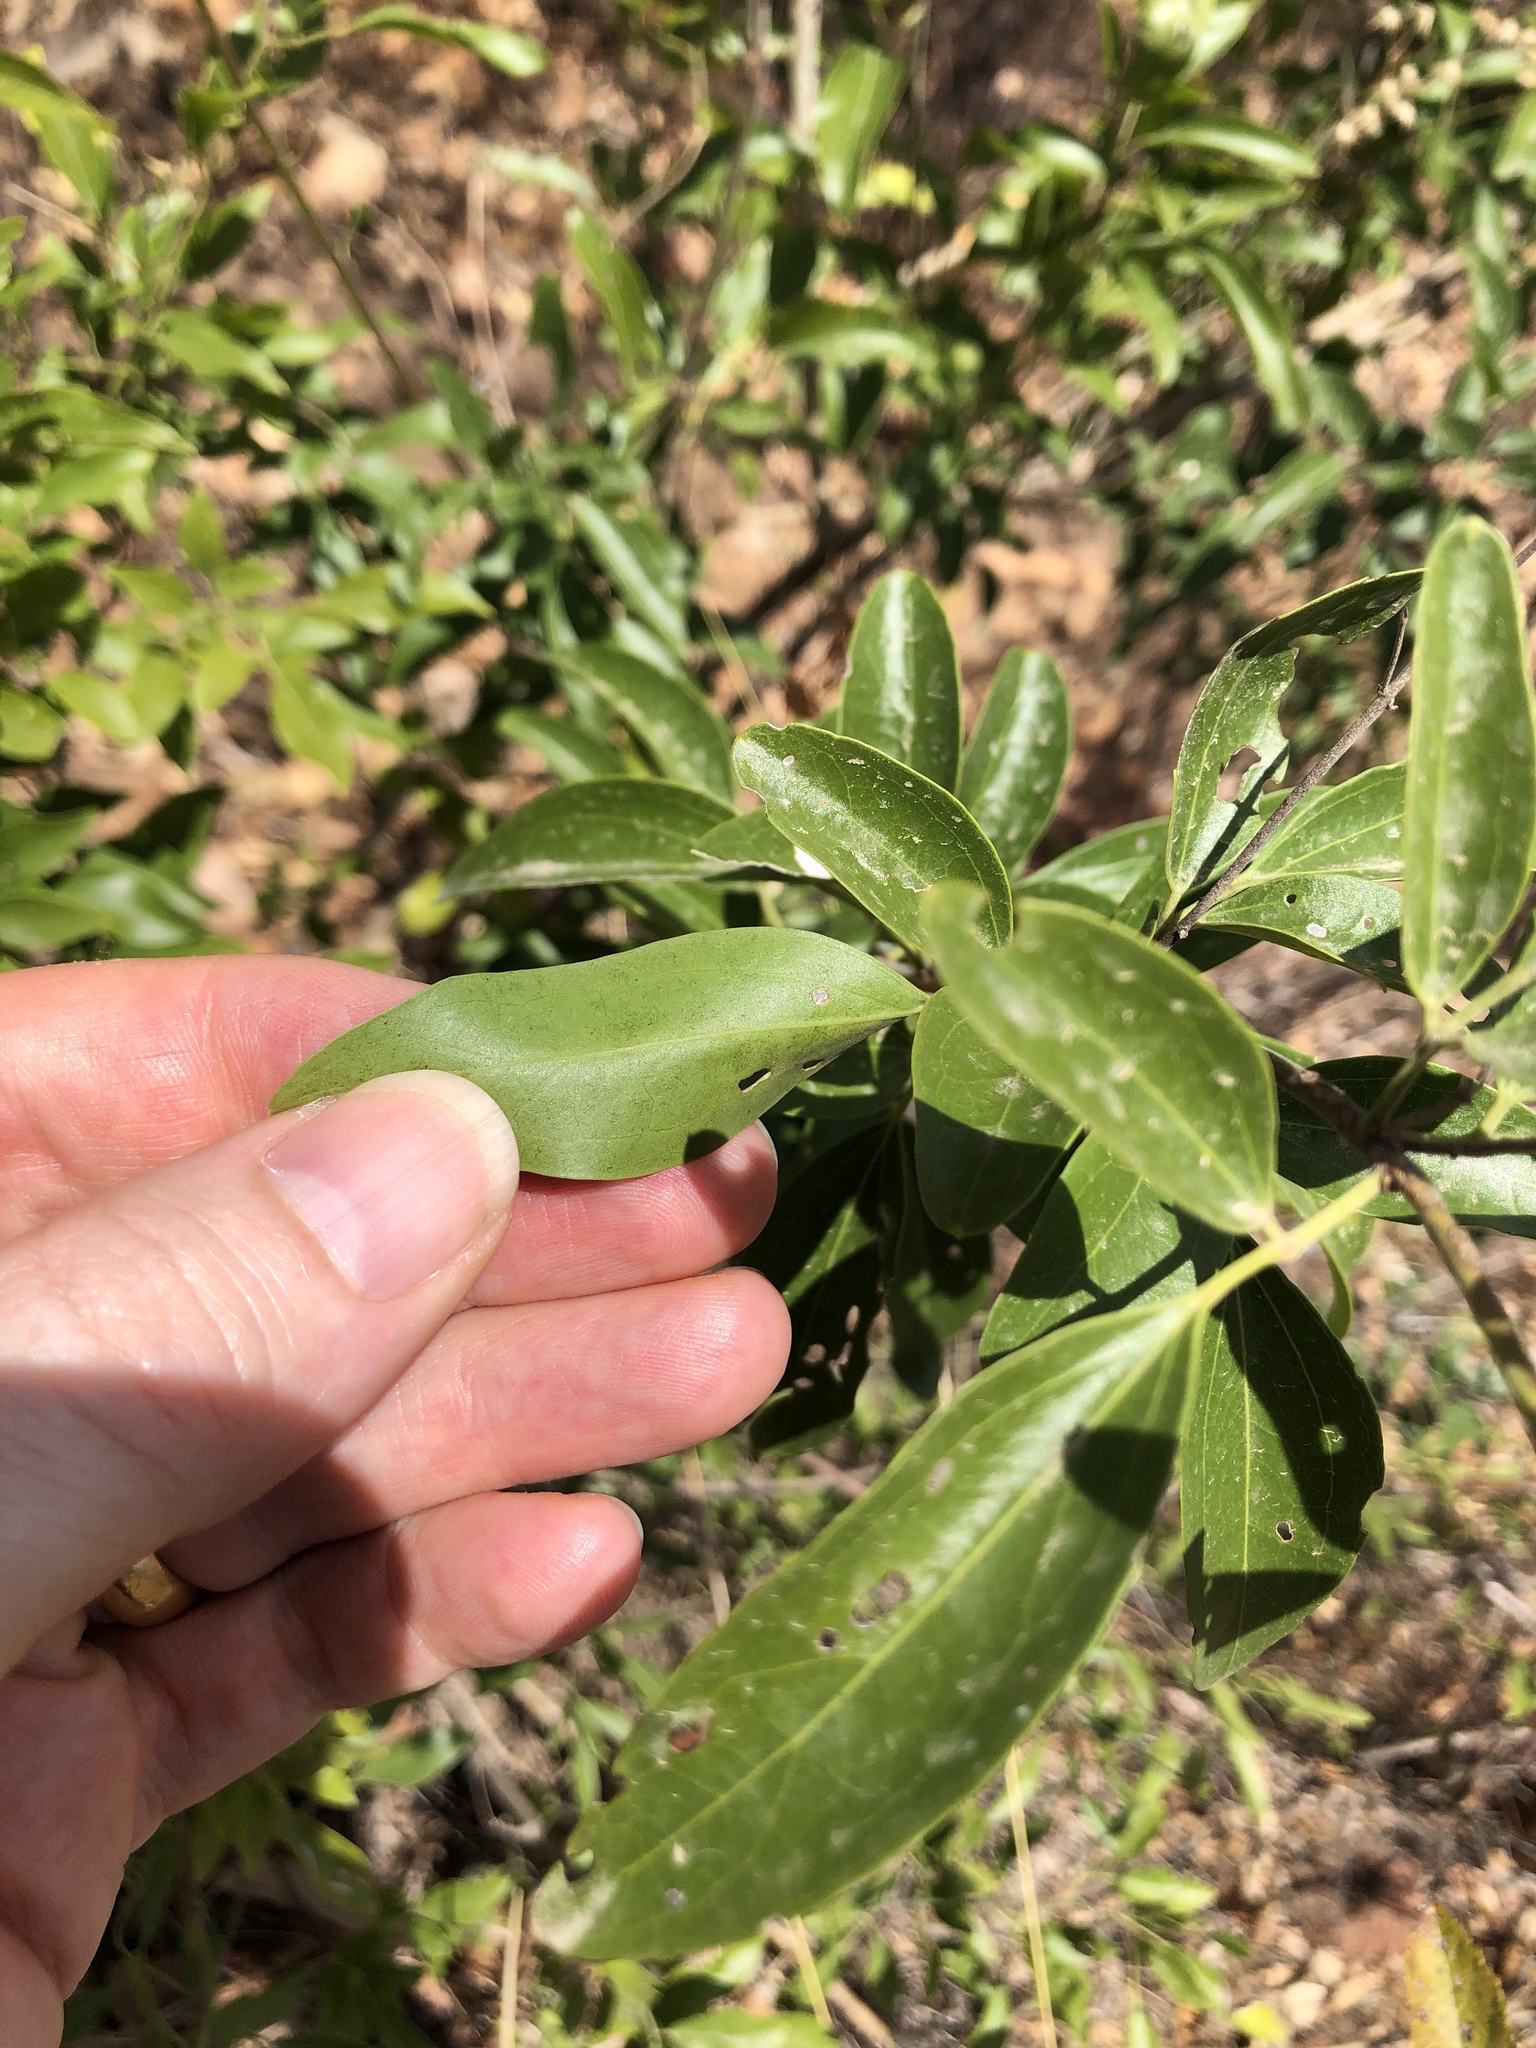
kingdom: Plantae
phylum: Tracheophyta
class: Magnoliopsida
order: Lamiales
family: Oleaceae
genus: Jasminum
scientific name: Jasminum didymum
